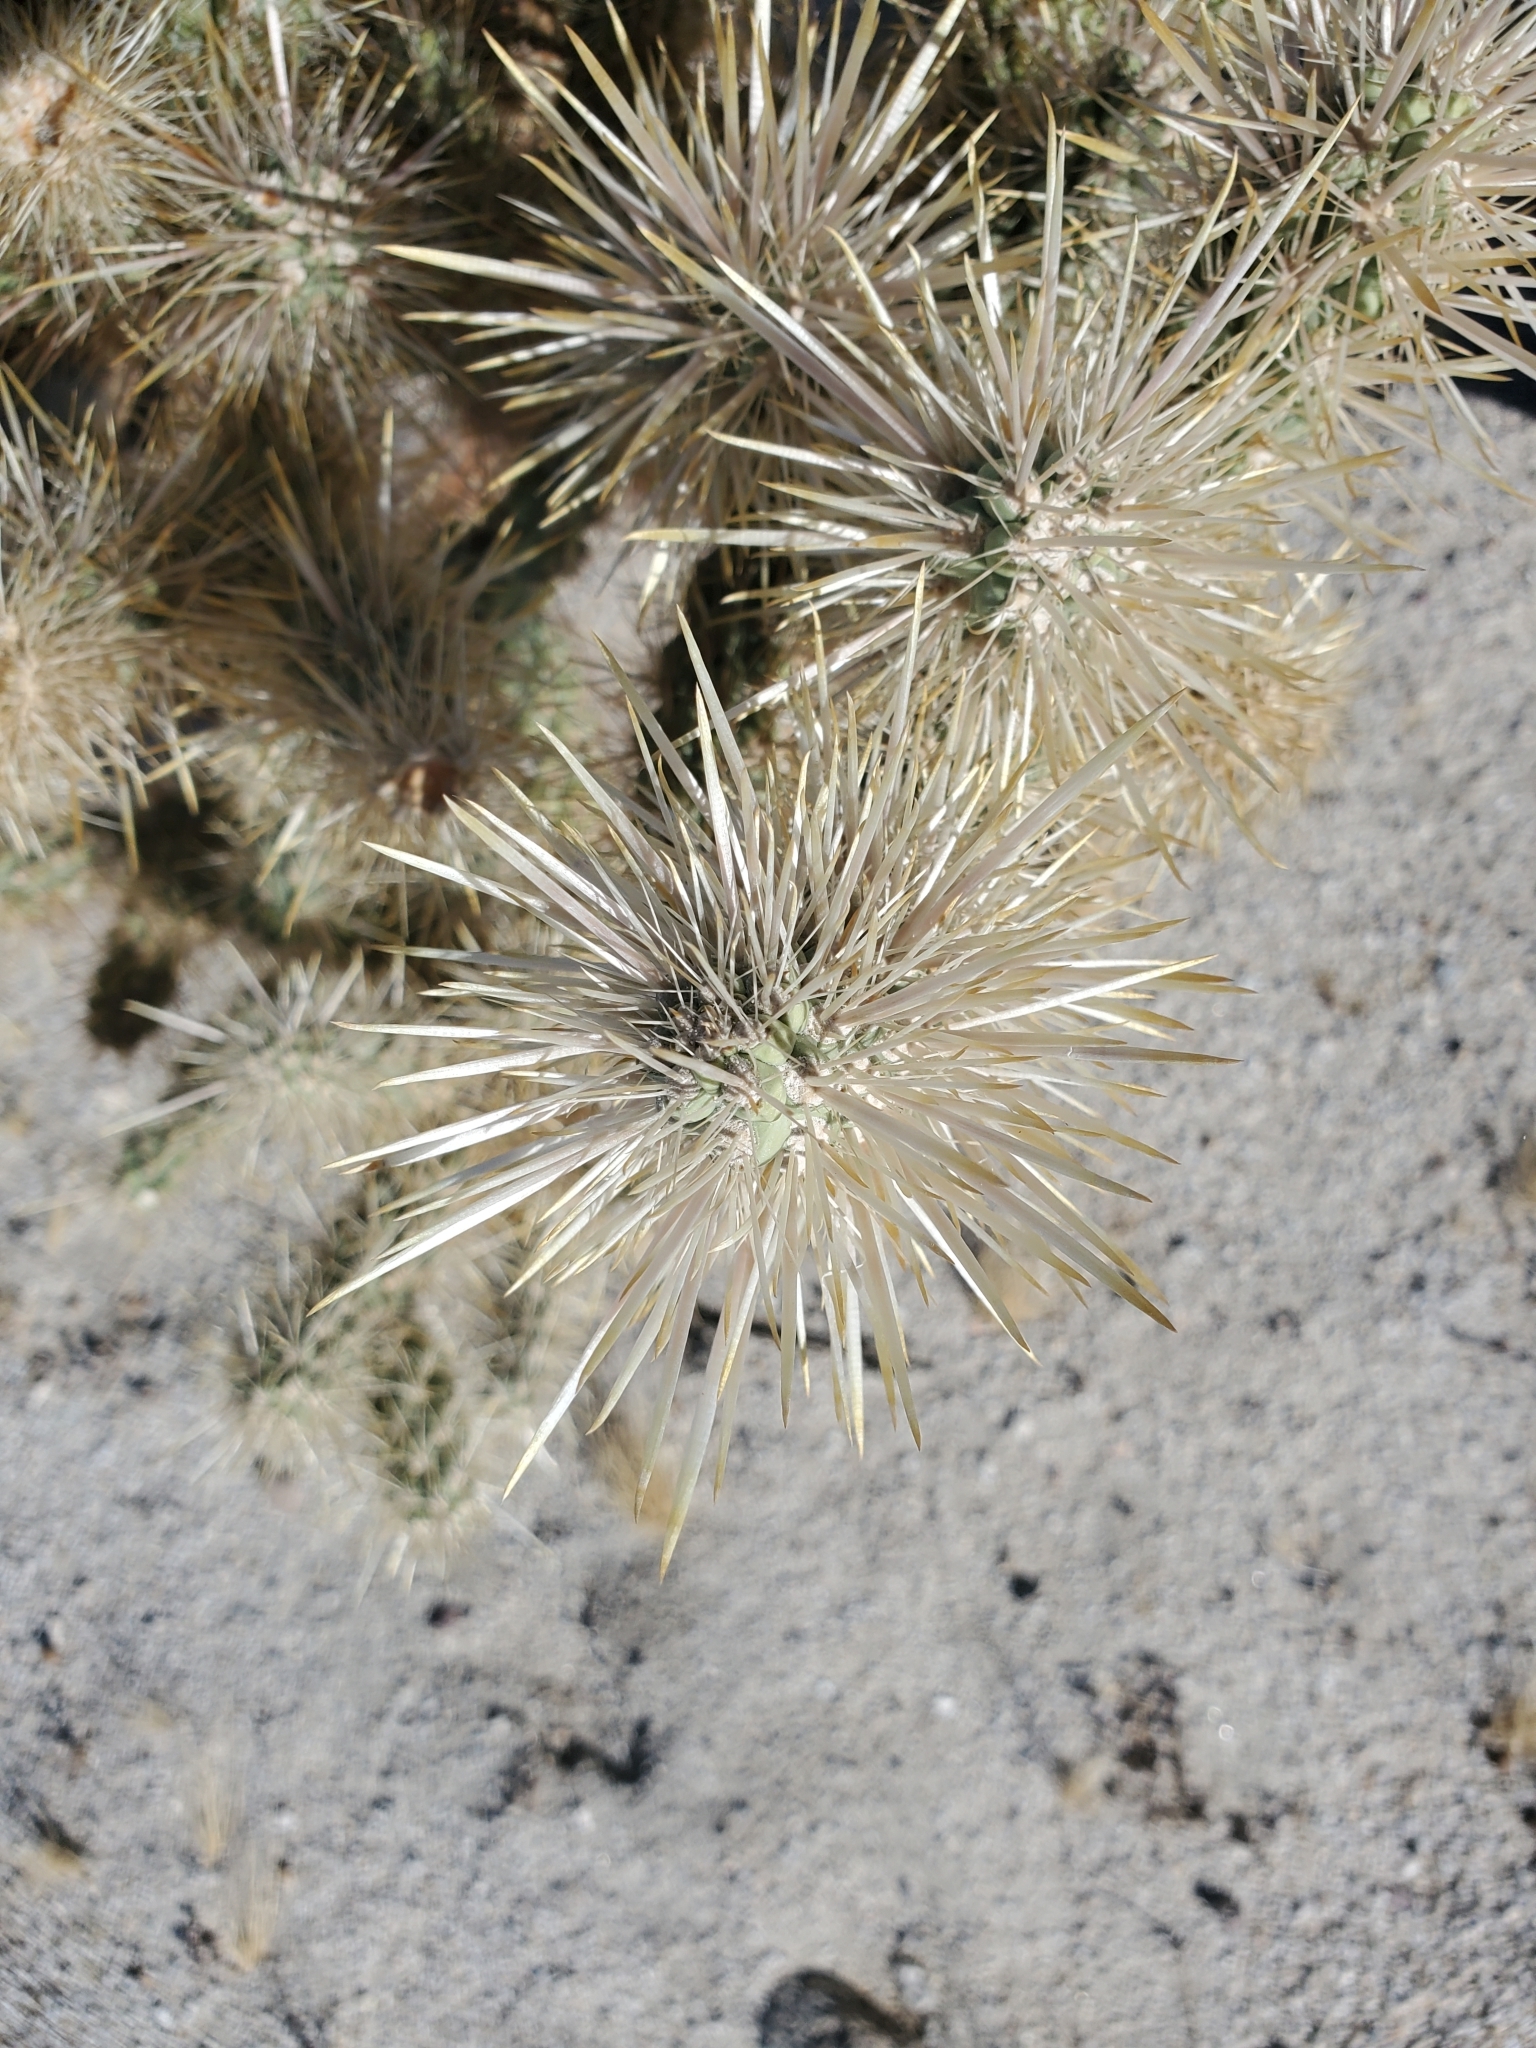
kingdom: Plantae
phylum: Tracheophyta
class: Magnoliopsida
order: Caryophyllales
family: Cactaceae
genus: Cylindropuntia
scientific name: Cylindropuntia echinocarpa
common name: Ground cholla
